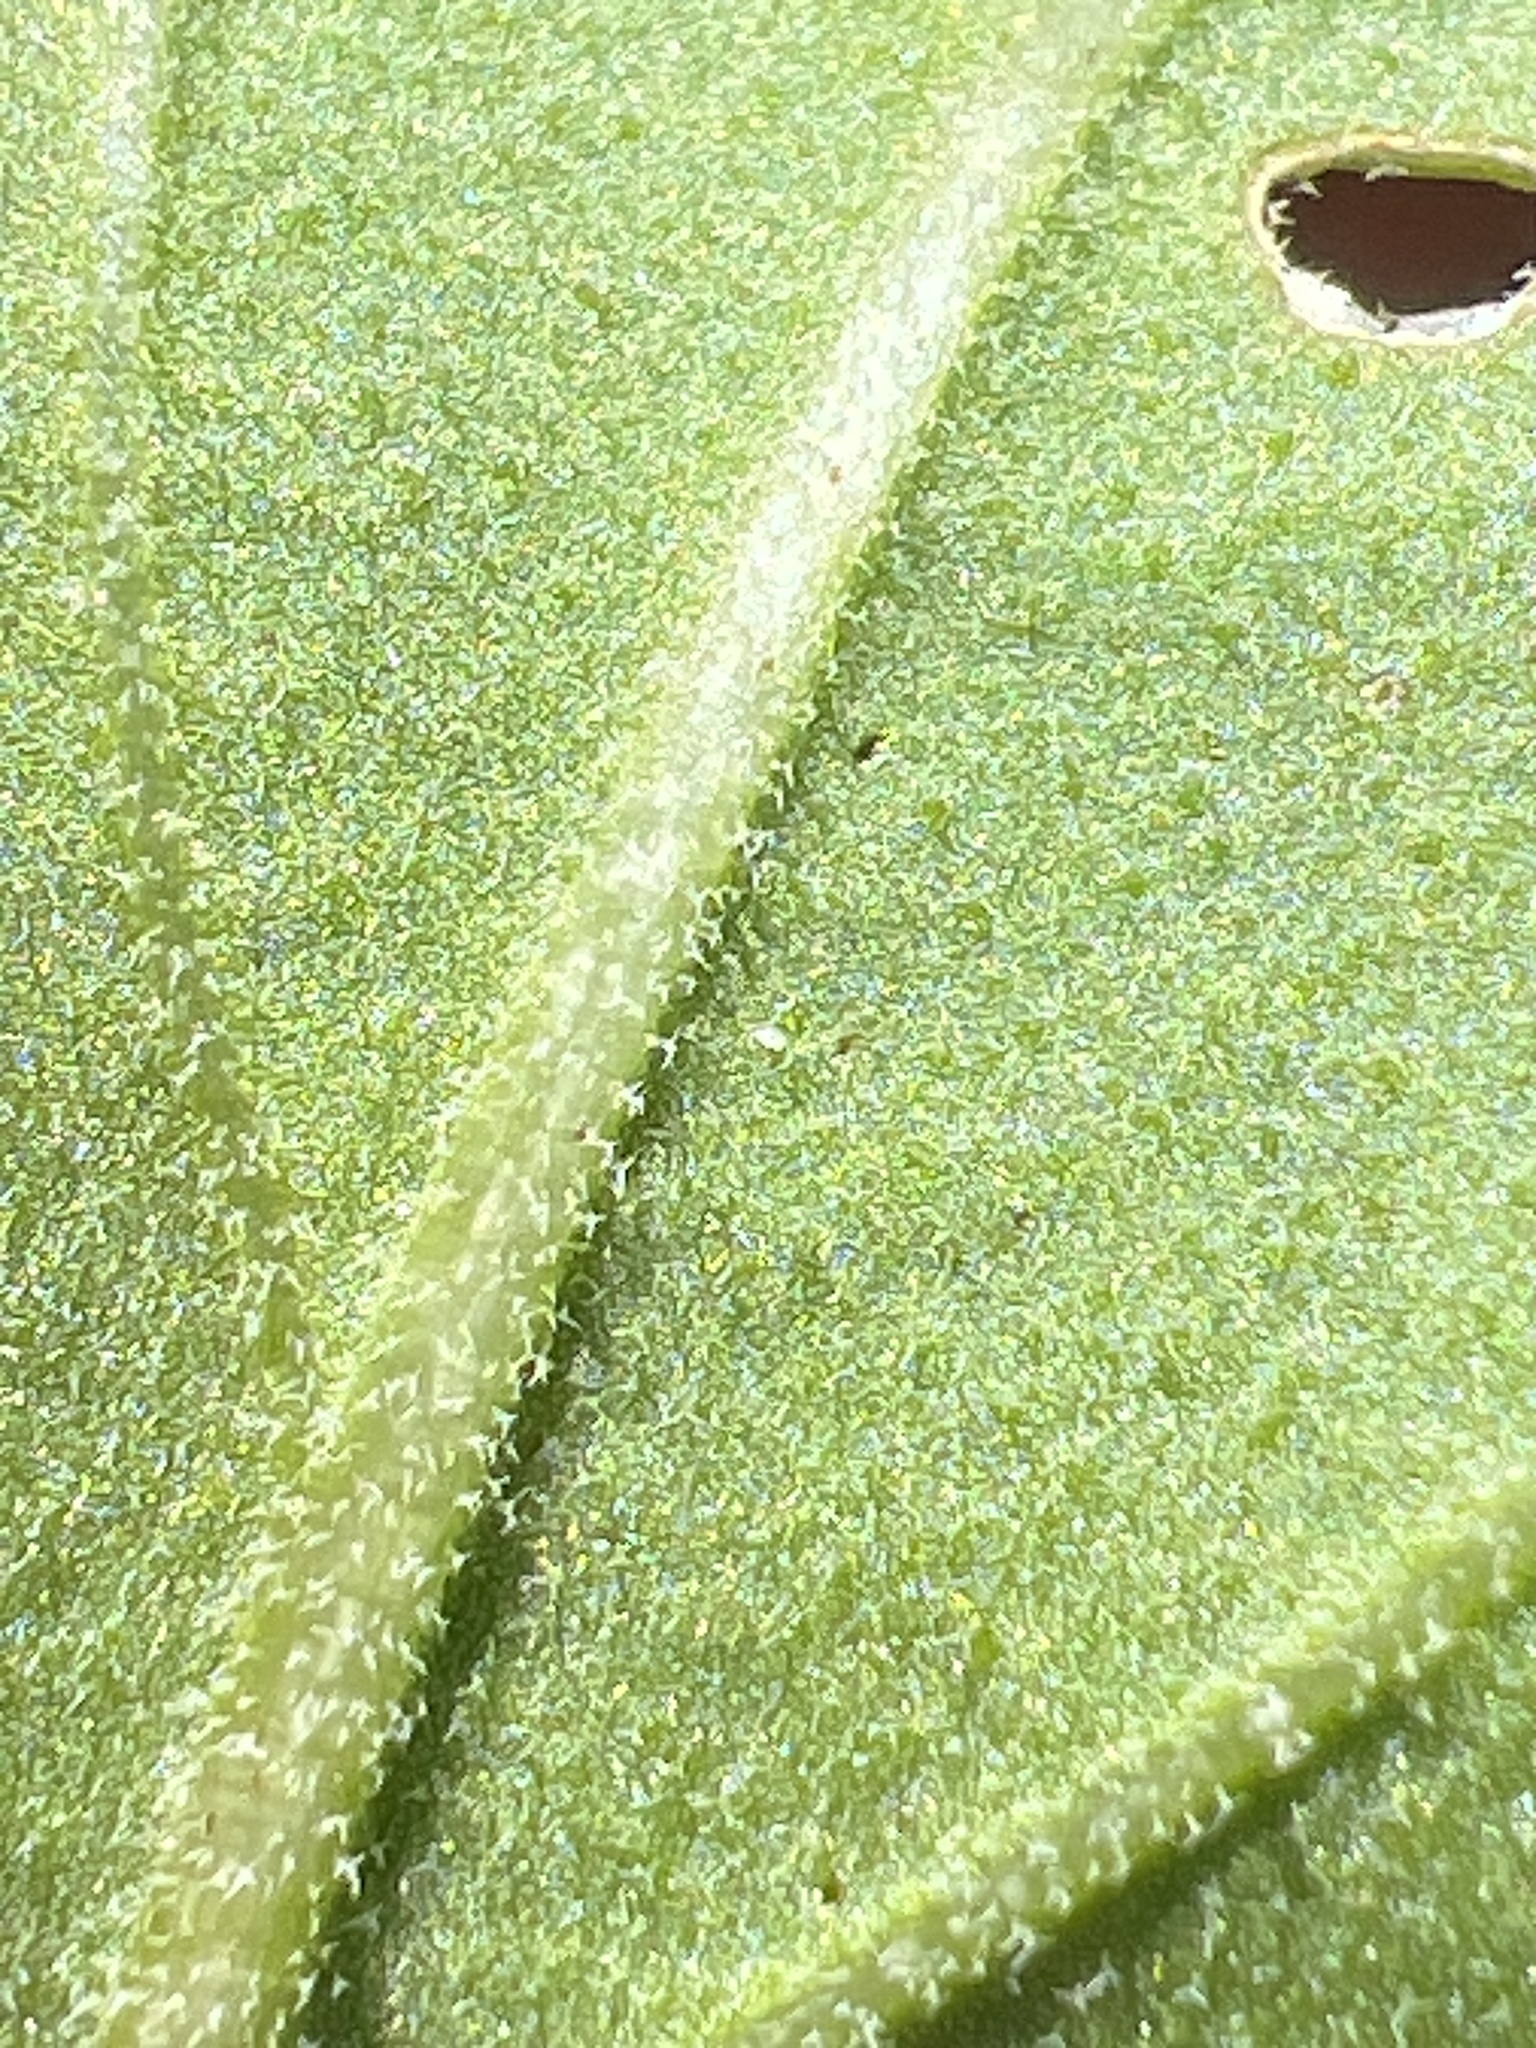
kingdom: Plantae
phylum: Tracheophyta
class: Magnoliopsida
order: Solanales
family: Solanaceae
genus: Physalis
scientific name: Physalis cinerascens
